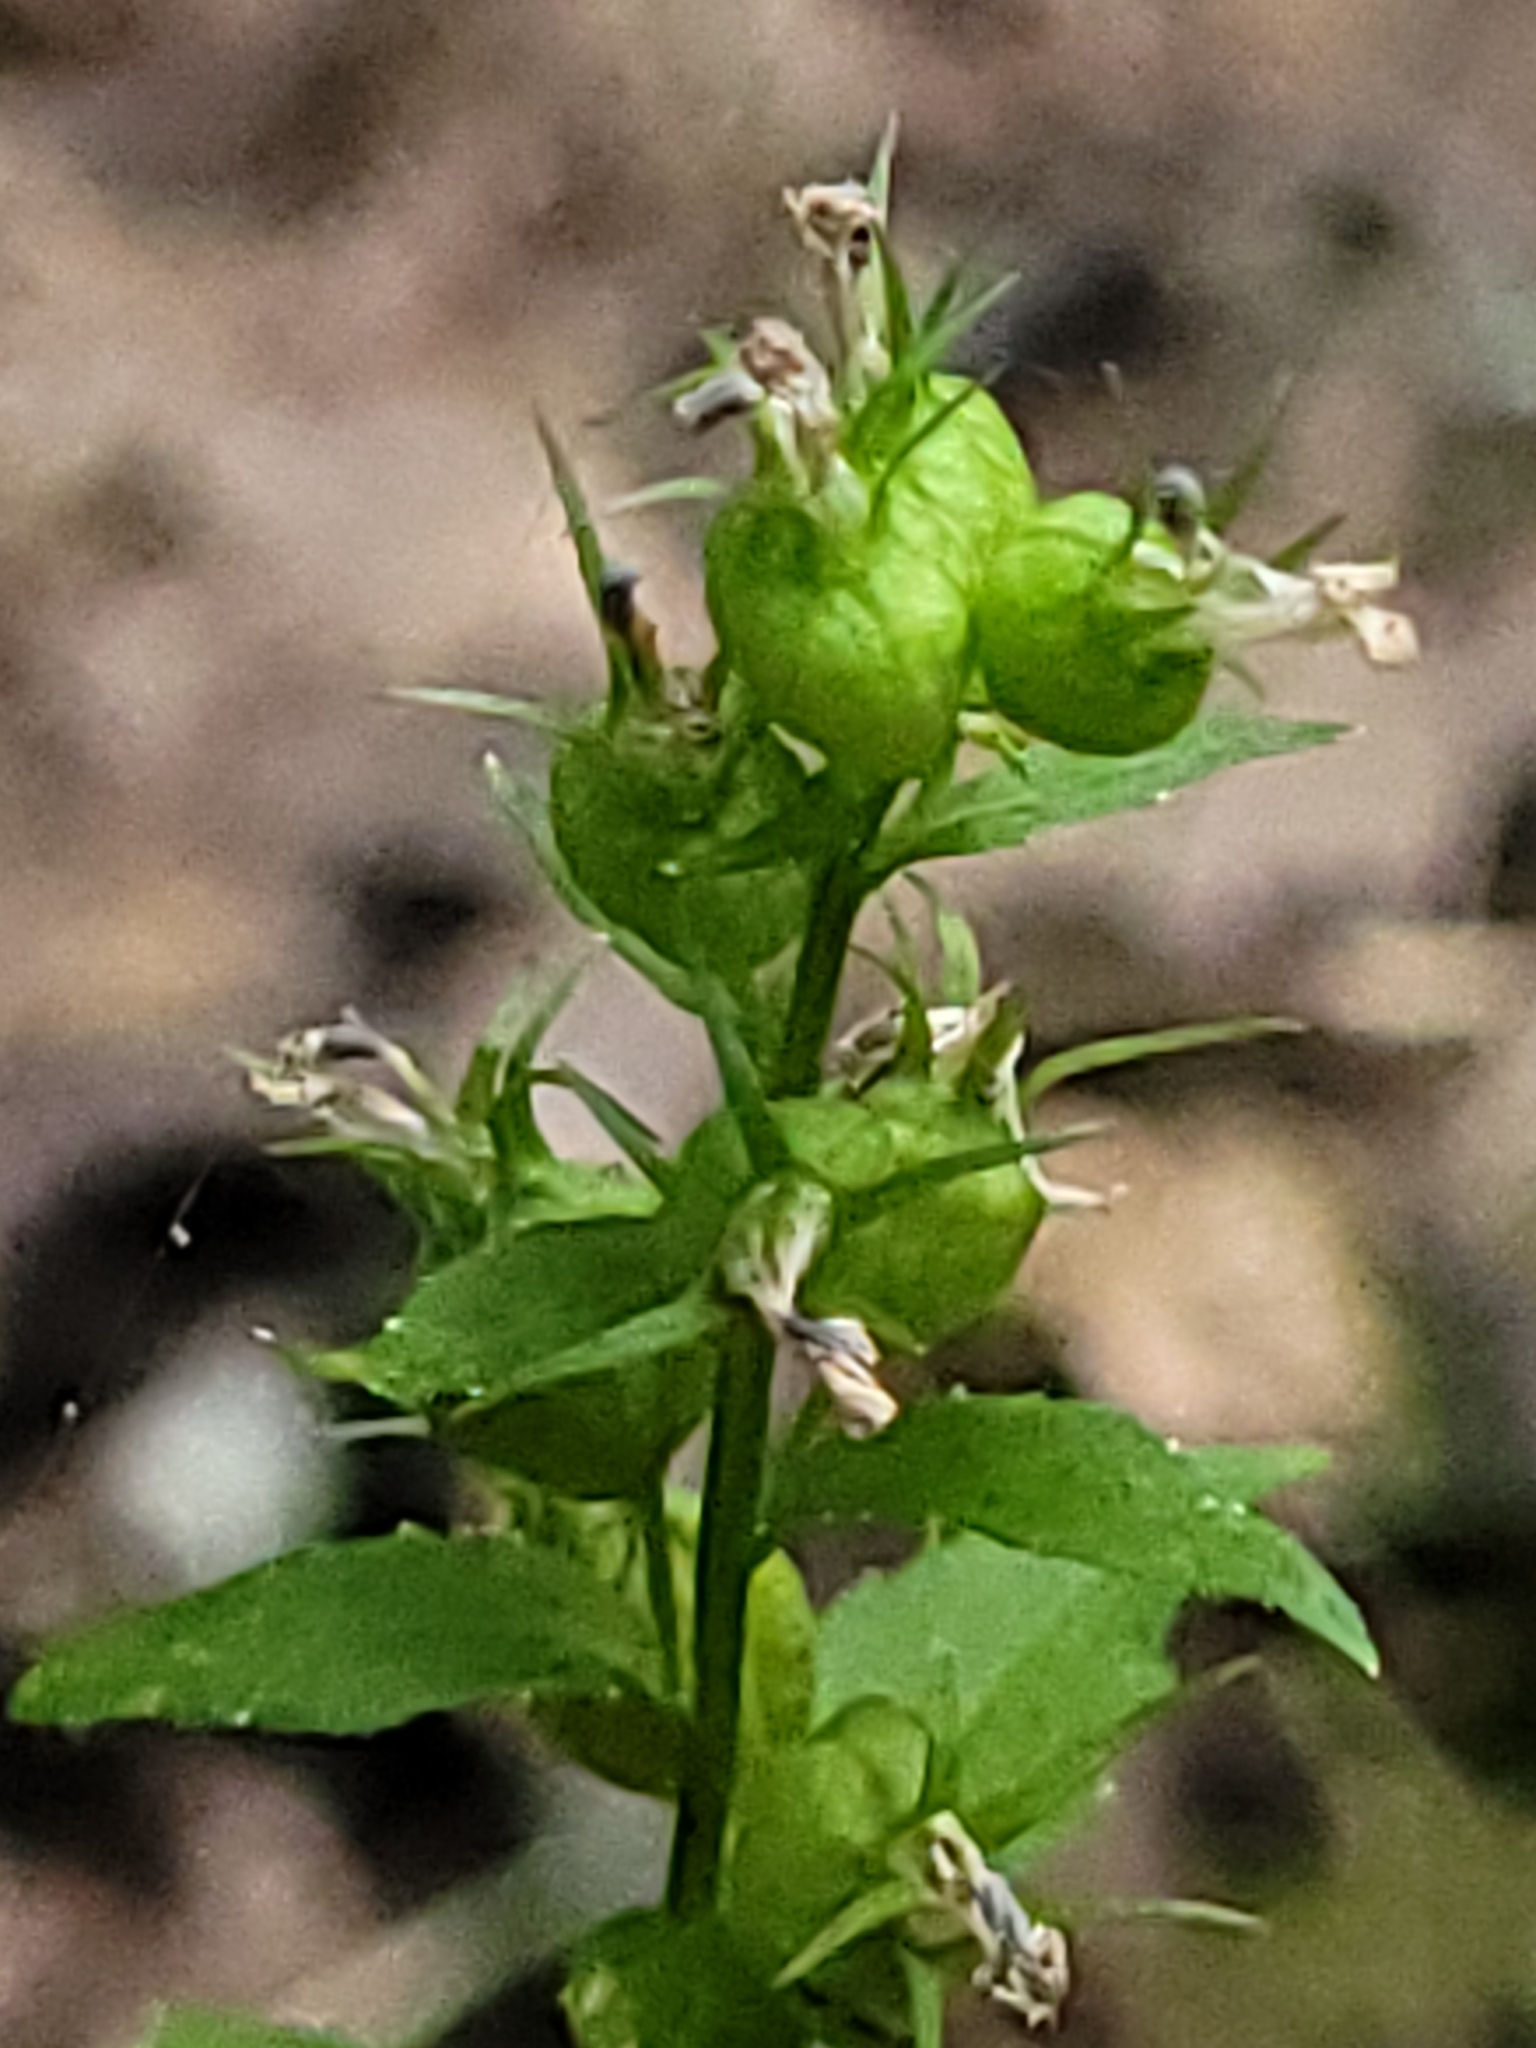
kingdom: Plantae
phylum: Tracheophyta
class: Magnoliopsida
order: Asterales
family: Campanulaceae
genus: Lobelia
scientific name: Lobelia inflata
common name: Indian tobacco
